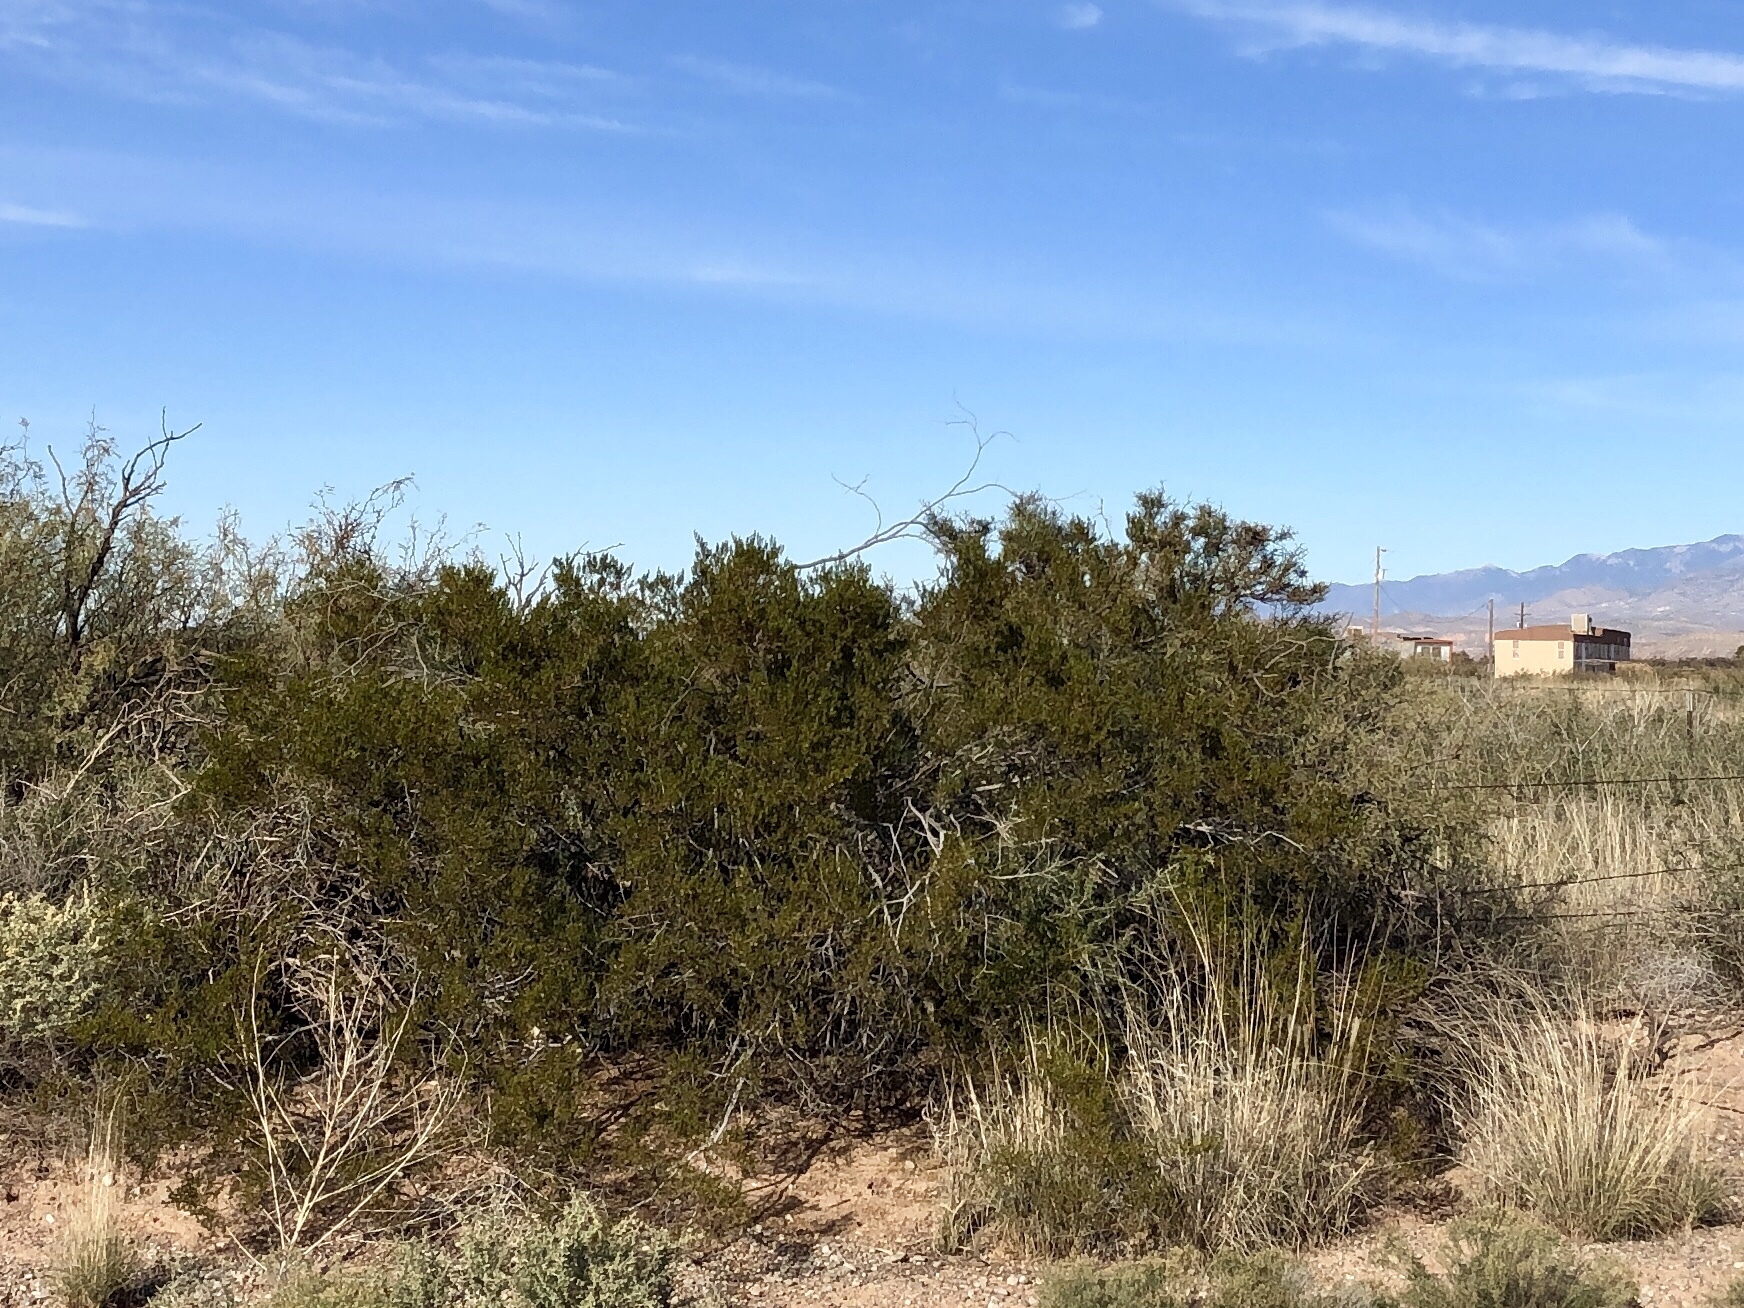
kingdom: Plantae
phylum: Tracheophyta
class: Magnoliopsida
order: Zygophyllales
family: Zygophyllaceae
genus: Larrea
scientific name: Larrea tridentata
